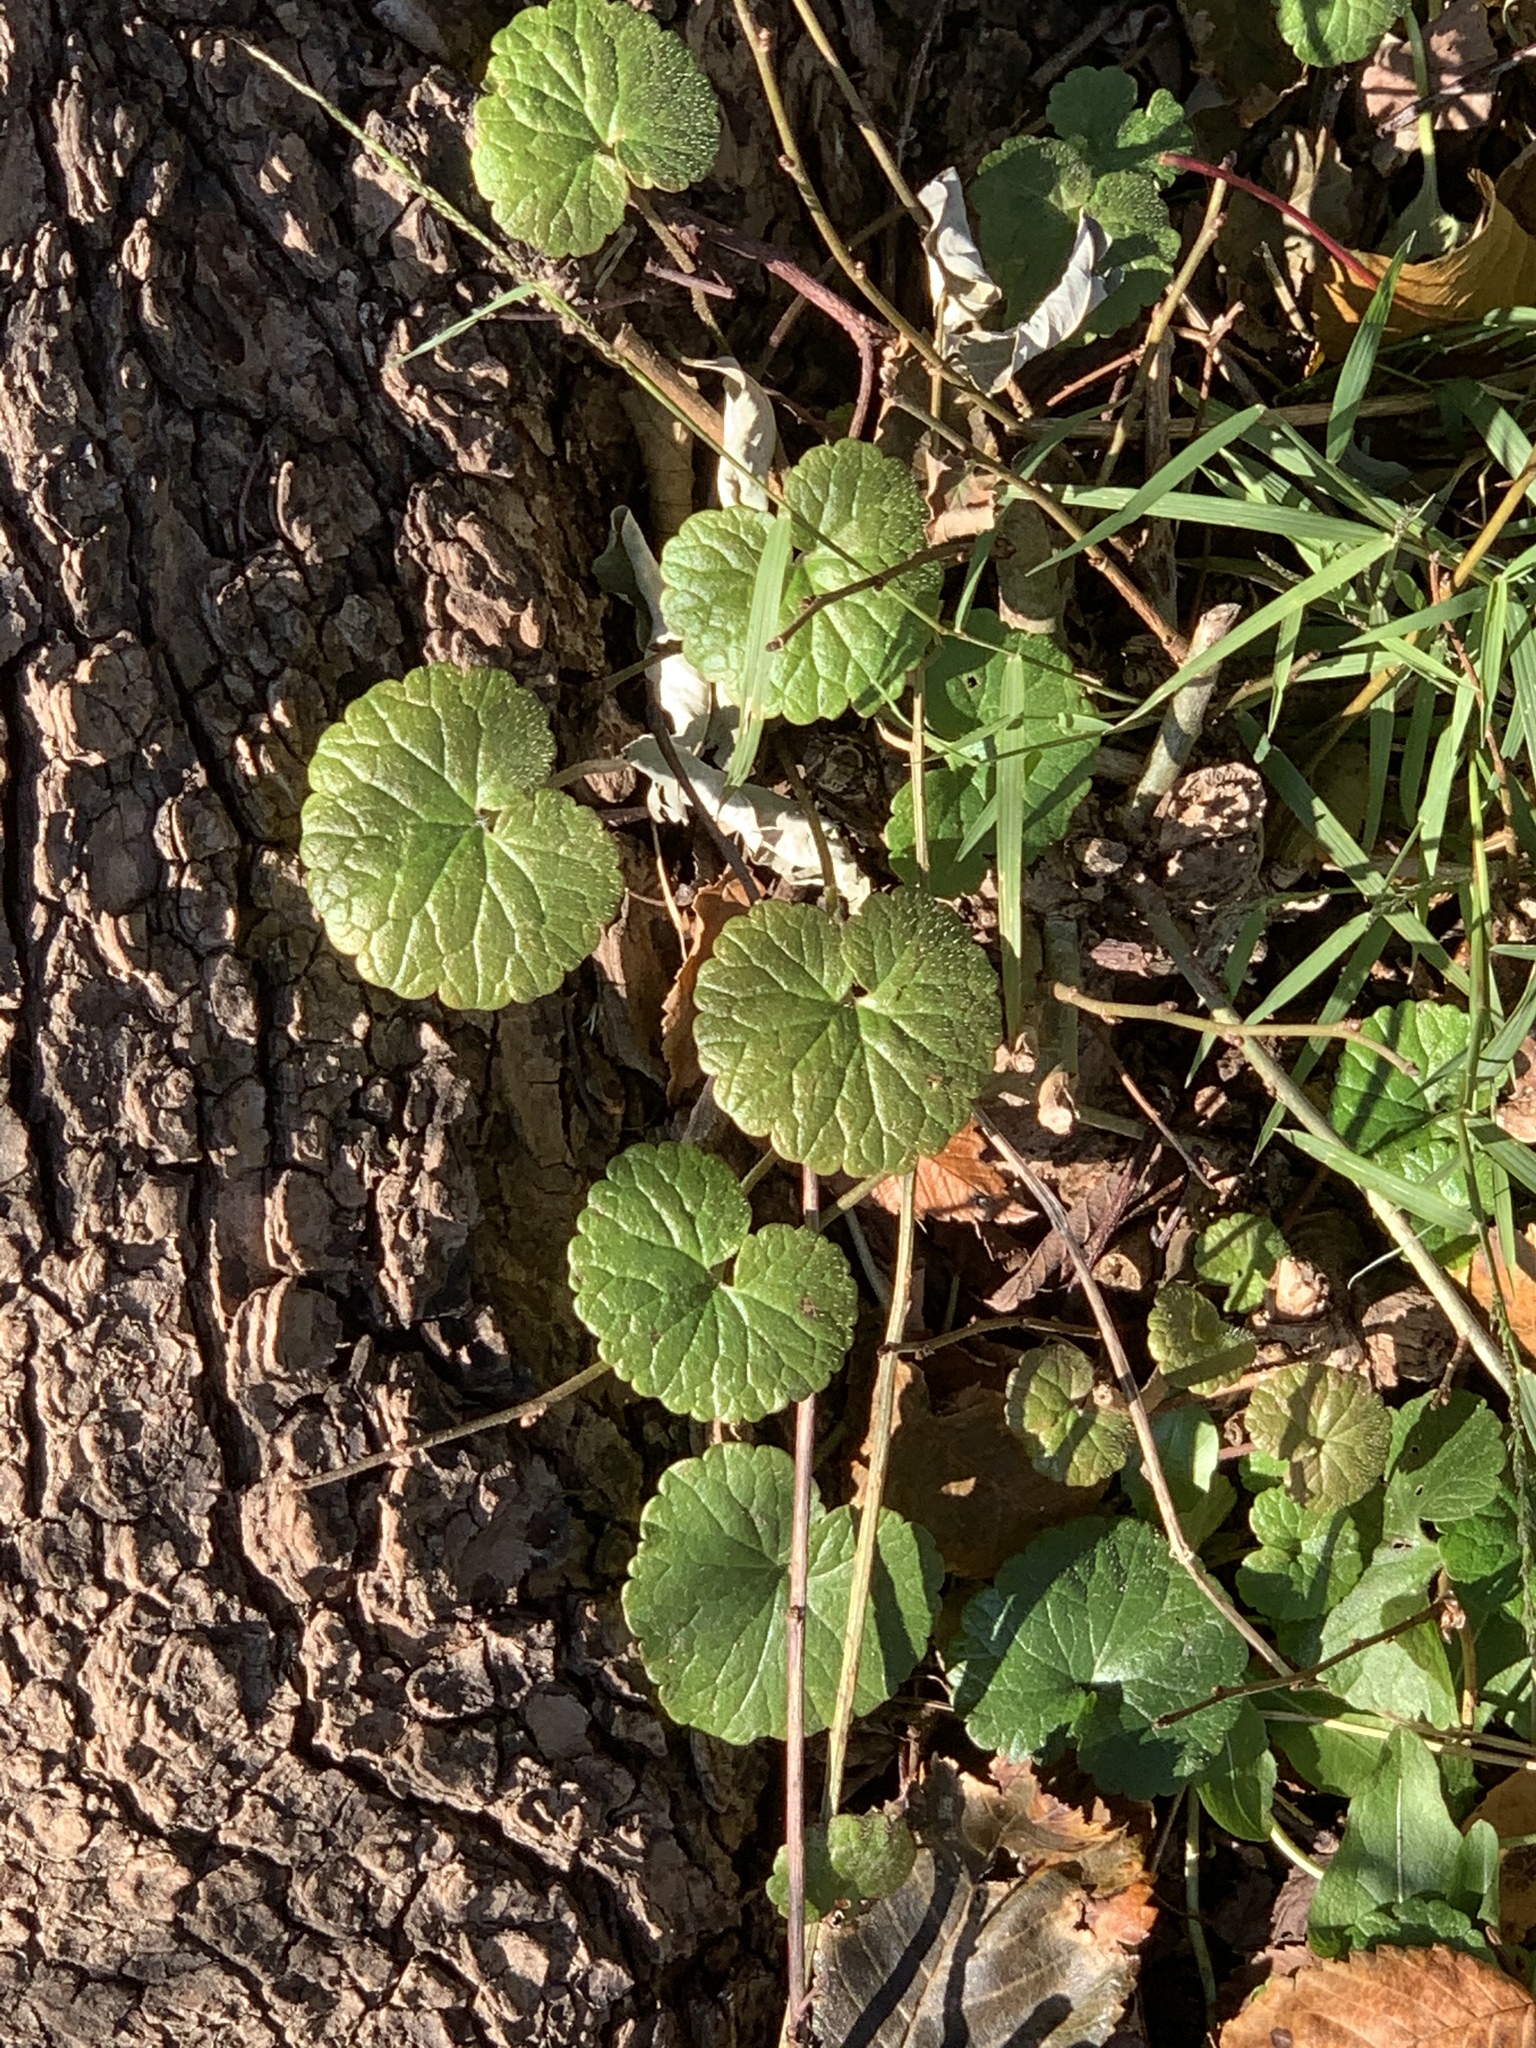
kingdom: Plantae
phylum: Tracheophyta
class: Magnoliopsida
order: Lamiales
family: Lamiaceae
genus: Glechoma
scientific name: Glechoma hederacea
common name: Ground ivy
